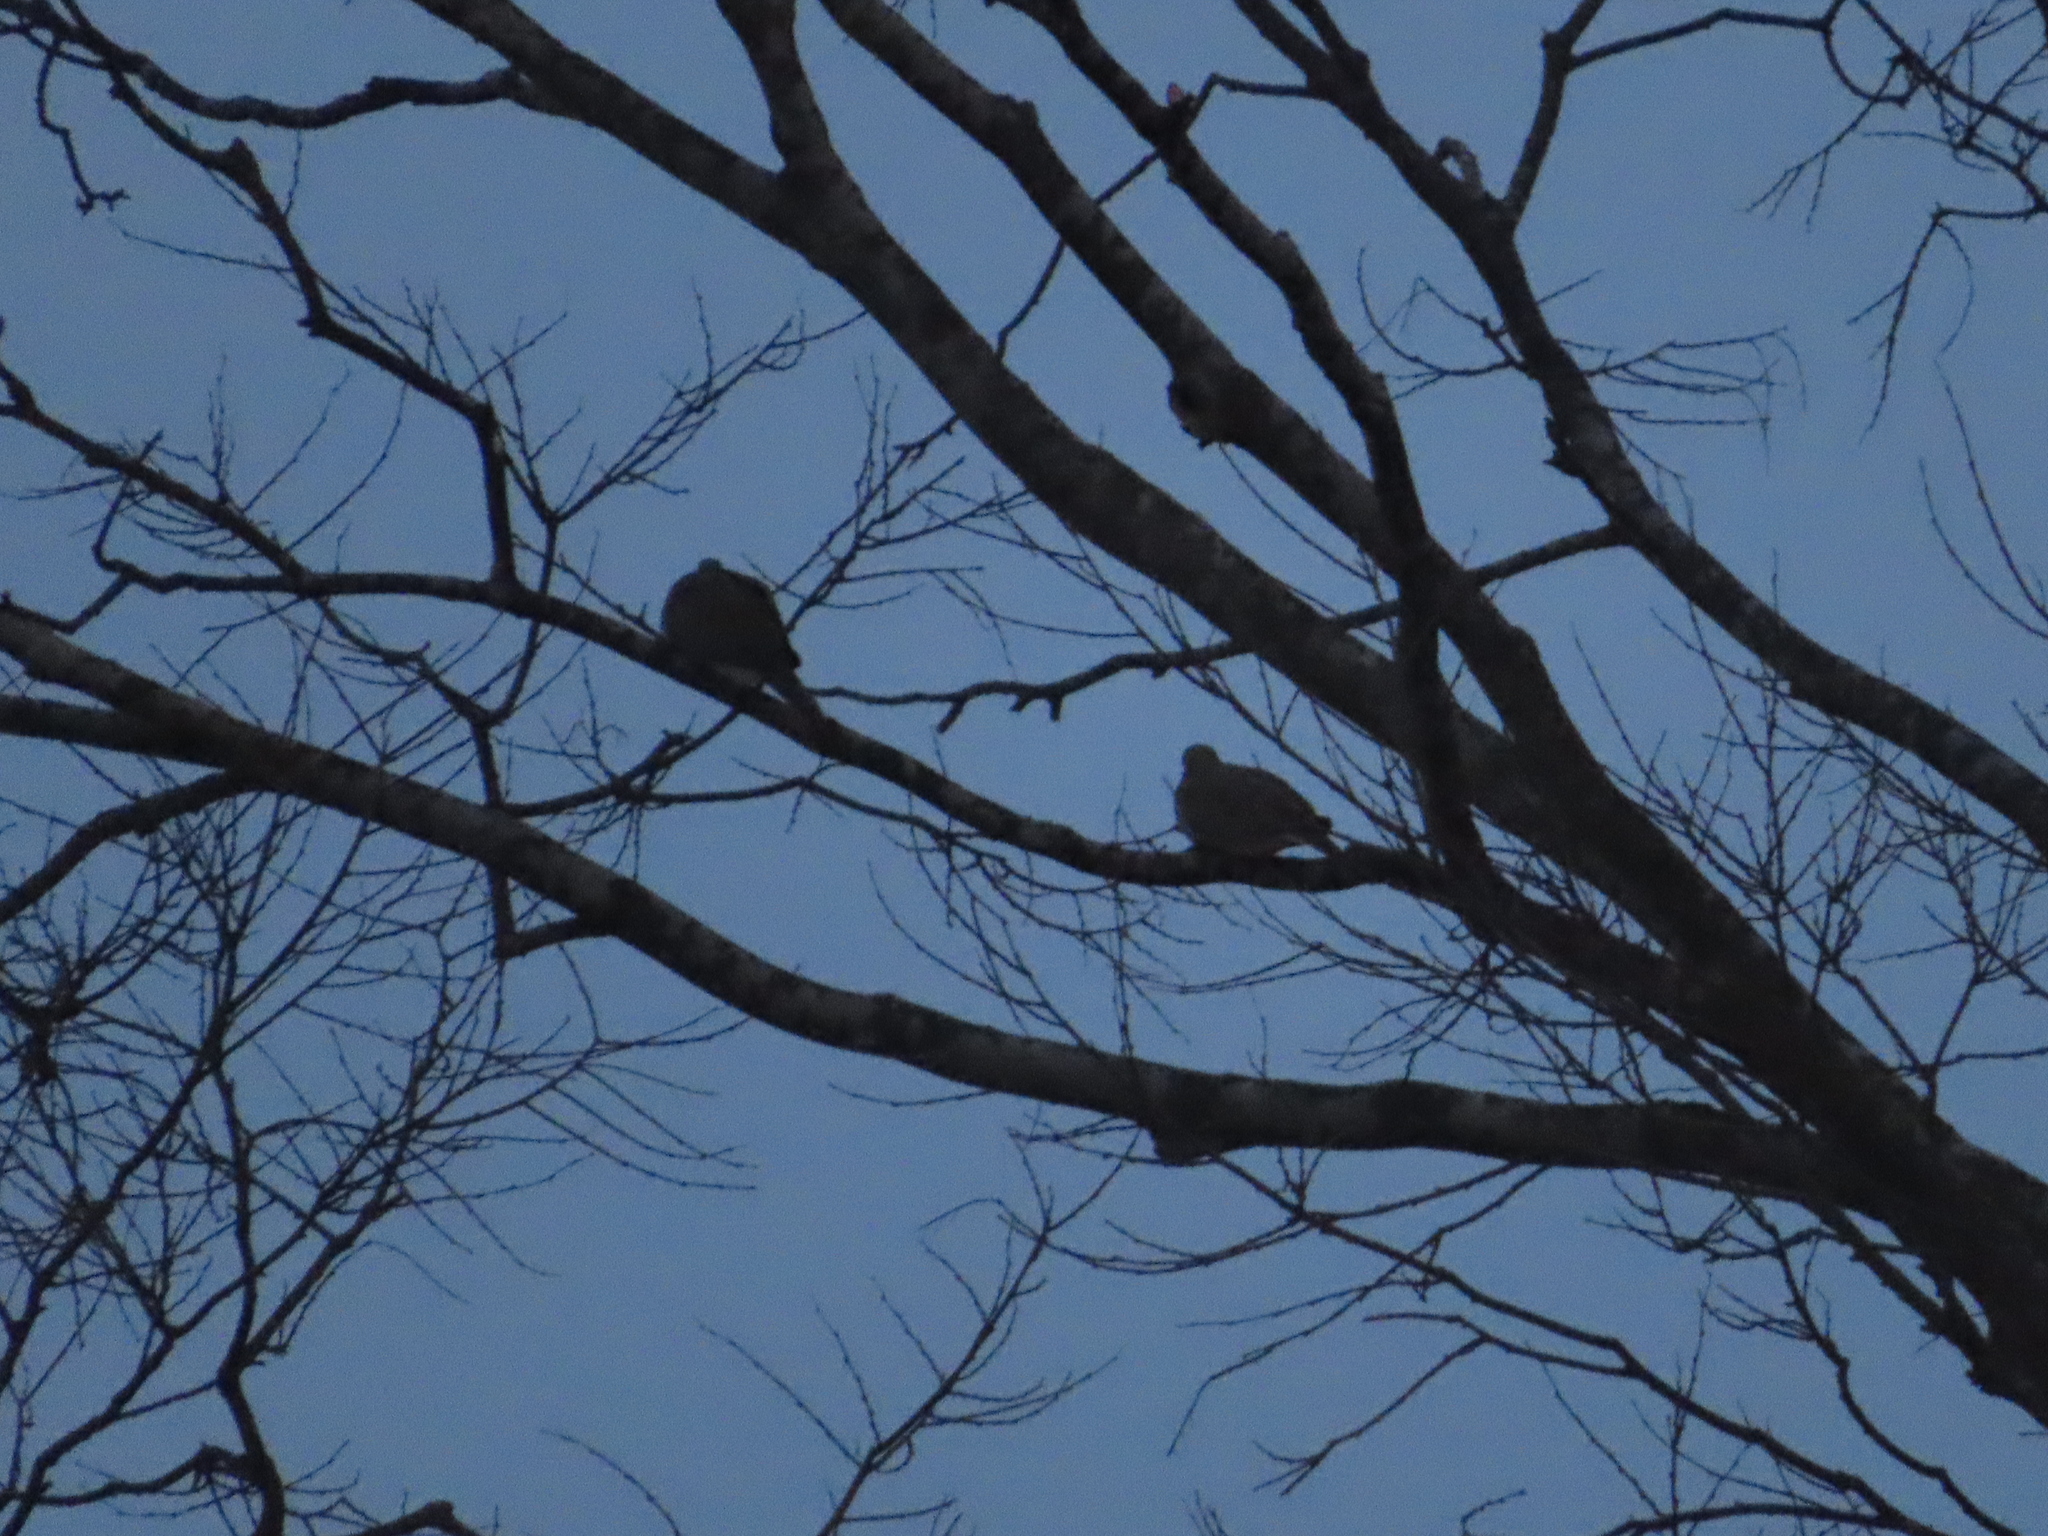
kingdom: Animalia
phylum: Chordata
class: Aves
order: Columbiformes
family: Columbidae
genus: Zenaida
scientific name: Zenaida macroura
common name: Mourning dove
